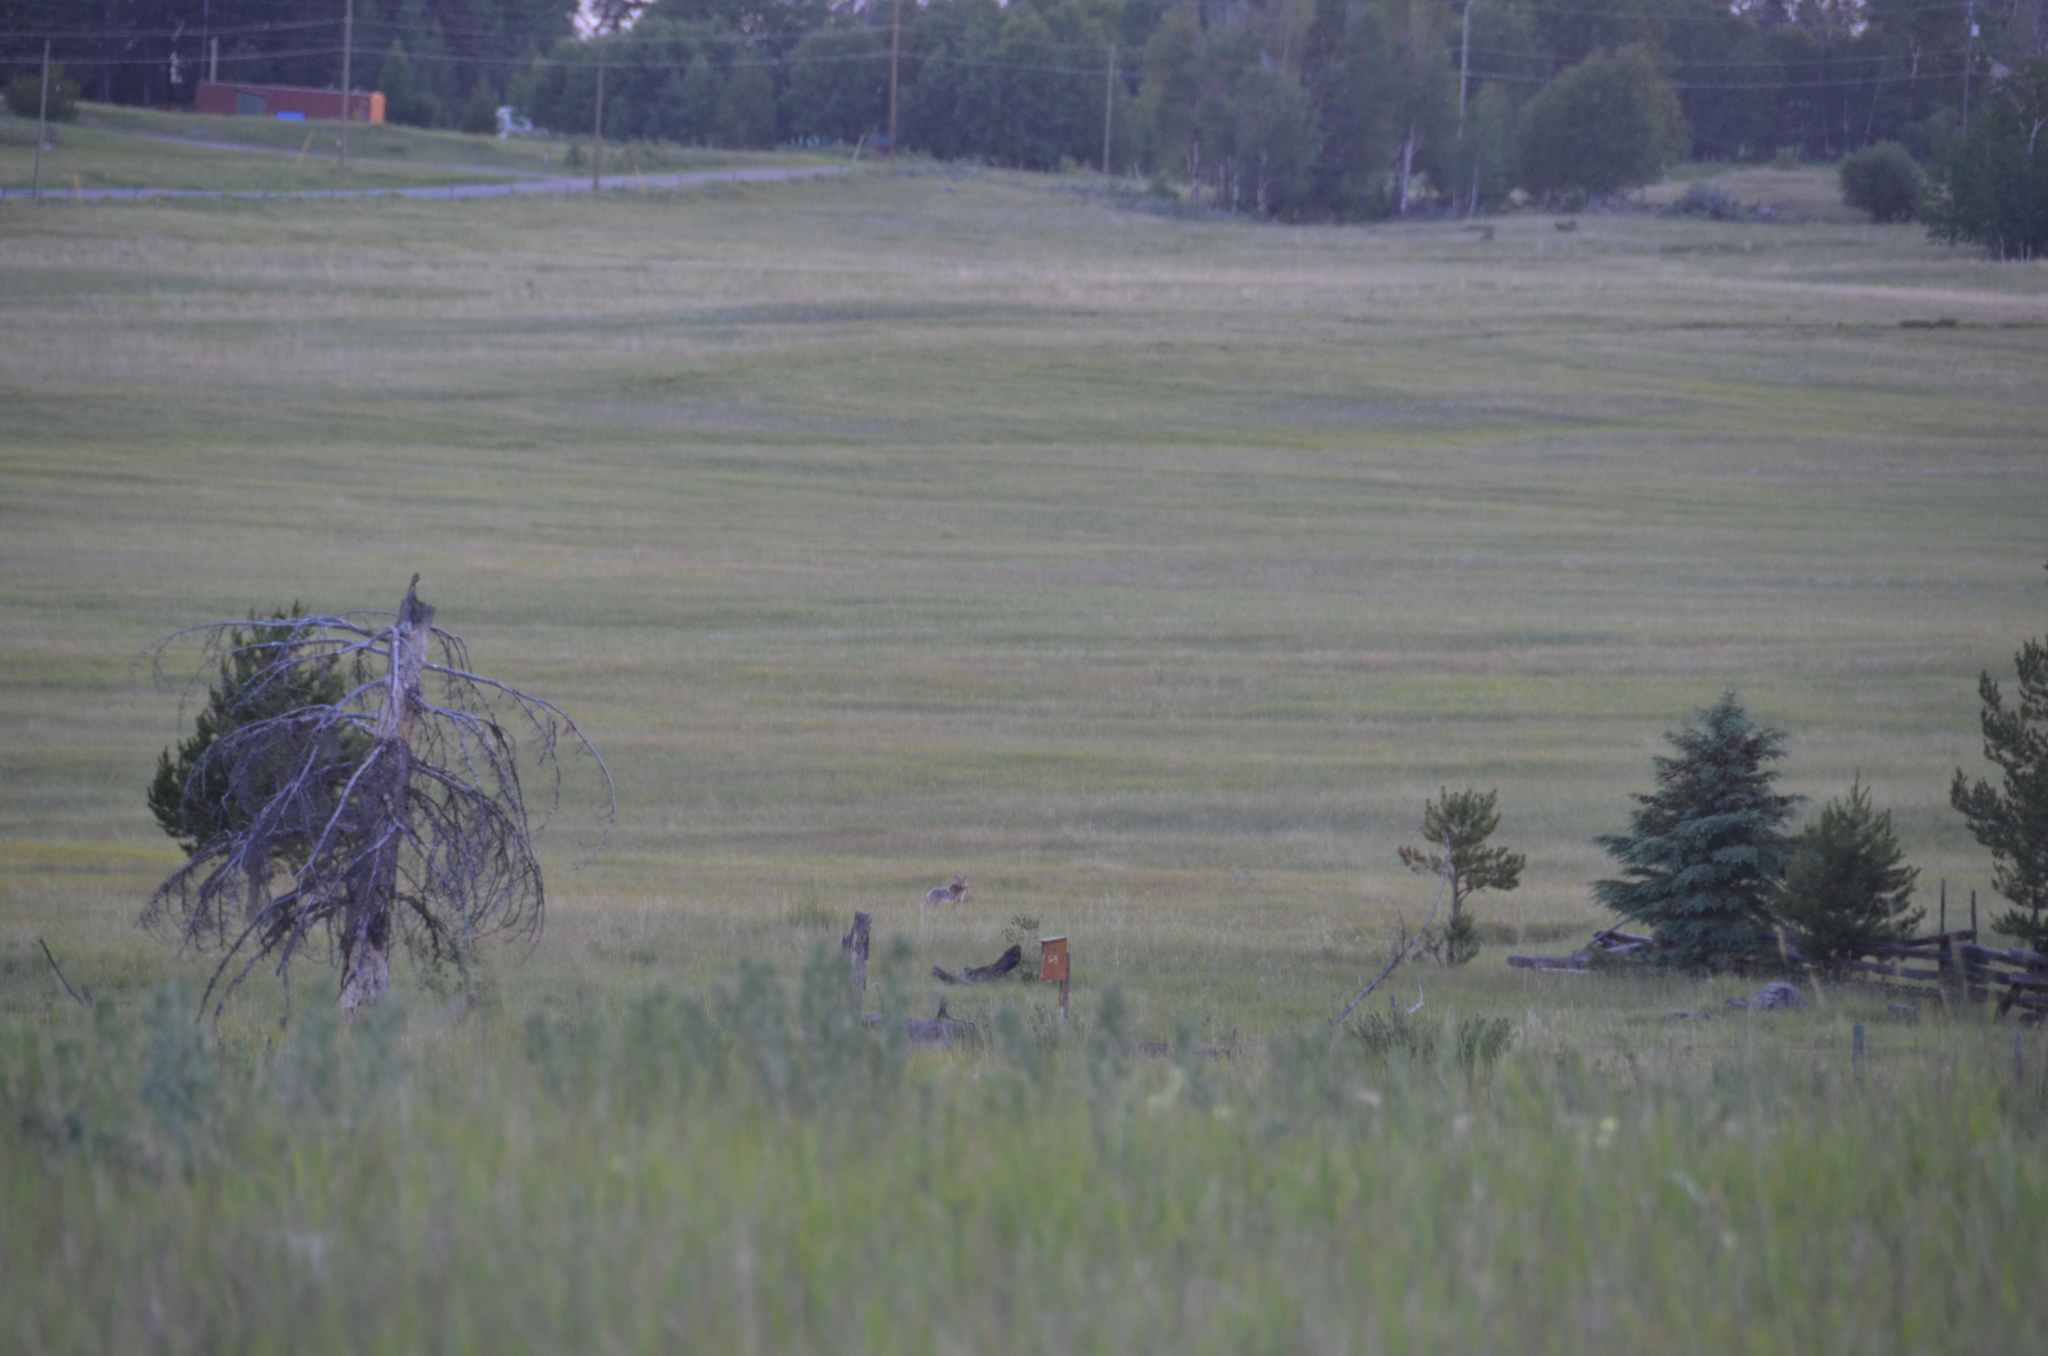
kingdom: Animalia
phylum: Chordata
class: Mammalia
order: Carnivora
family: Canidae
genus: Canis
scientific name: Canis latrans
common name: Coyote
